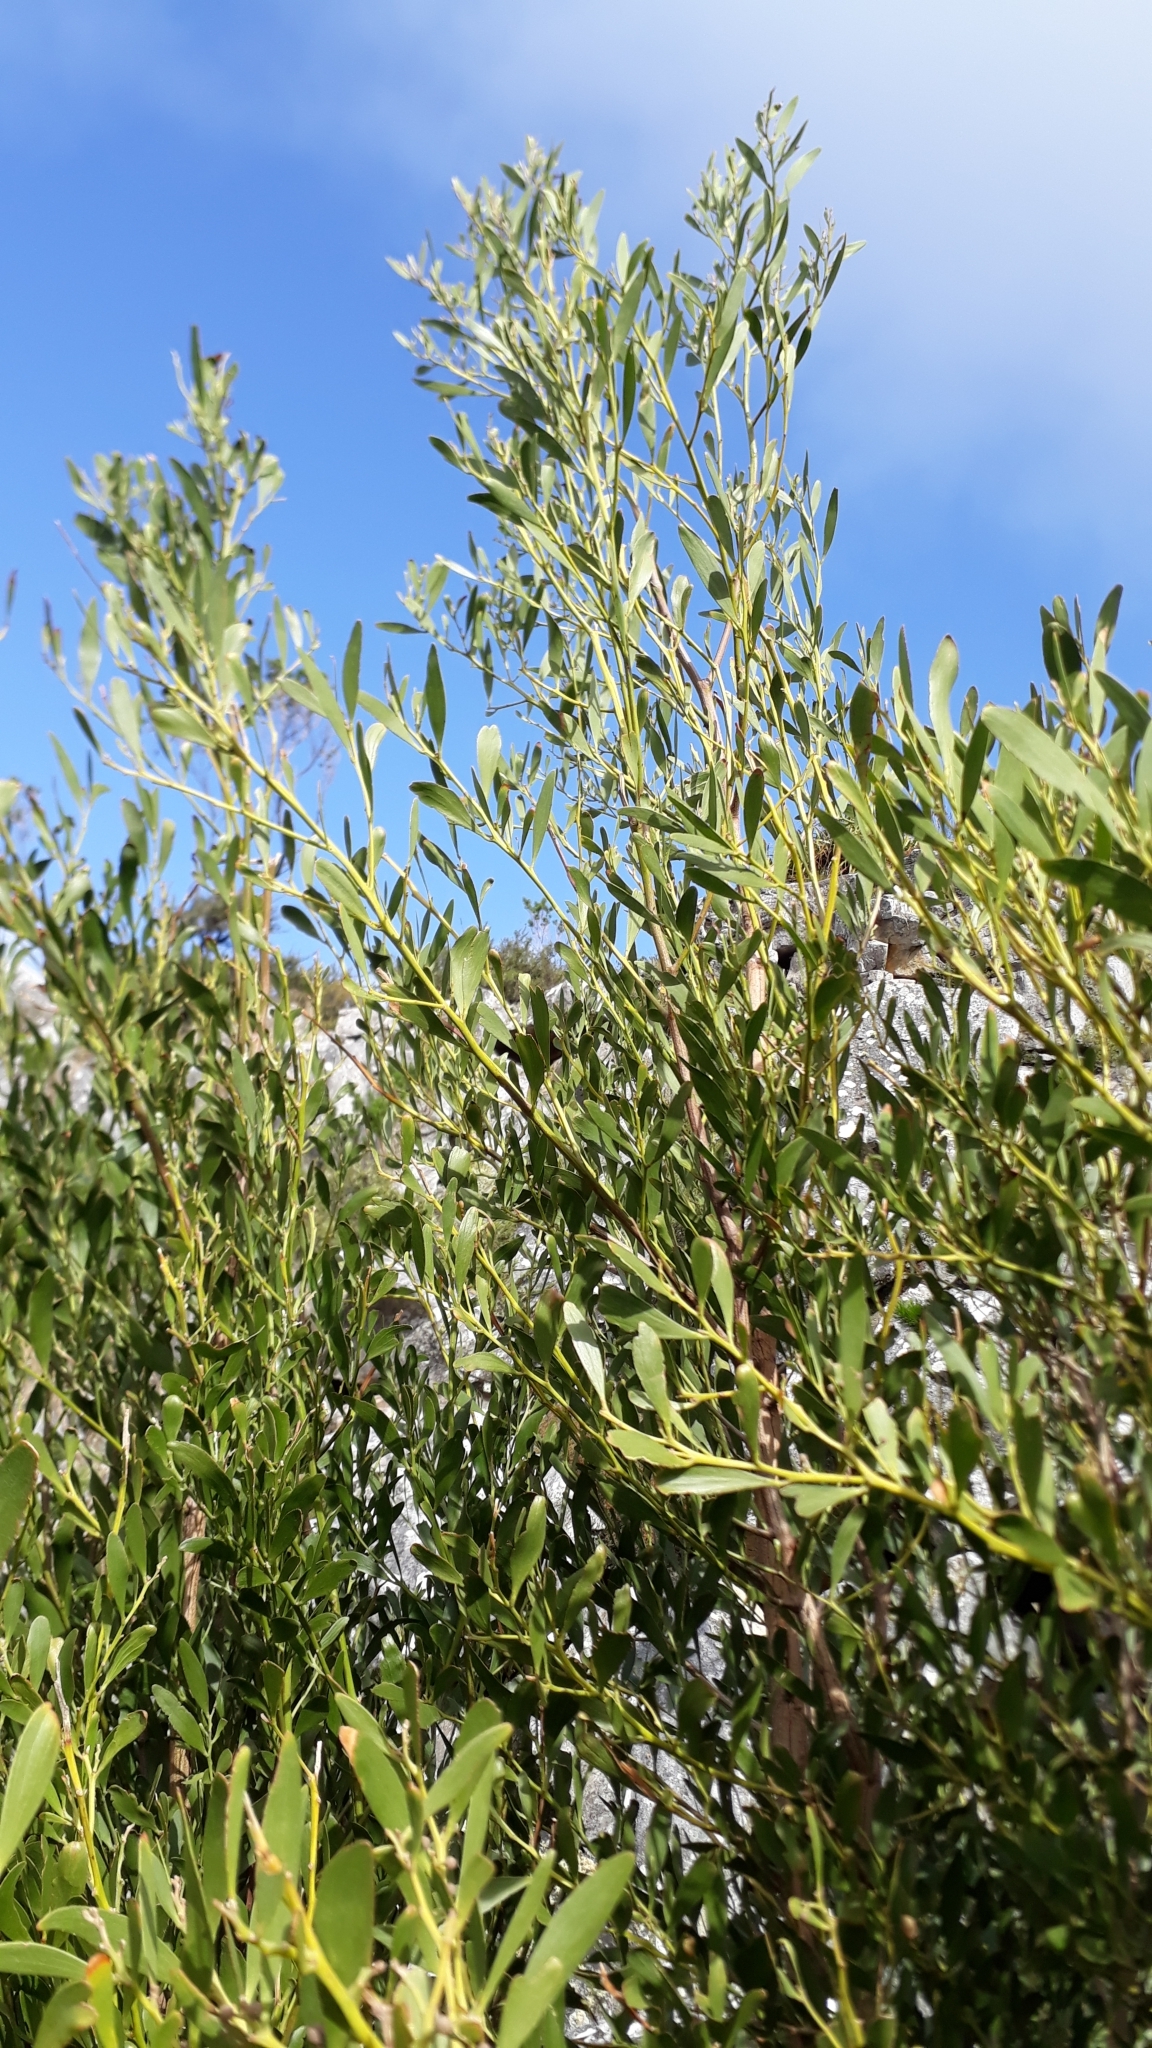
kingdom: Plantae
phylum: Tracheophyta
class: Magnoliopsida
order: Fabales
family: Fabaceae
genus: Acacia
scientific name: Acacia melanoxylon
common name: Blackwood
